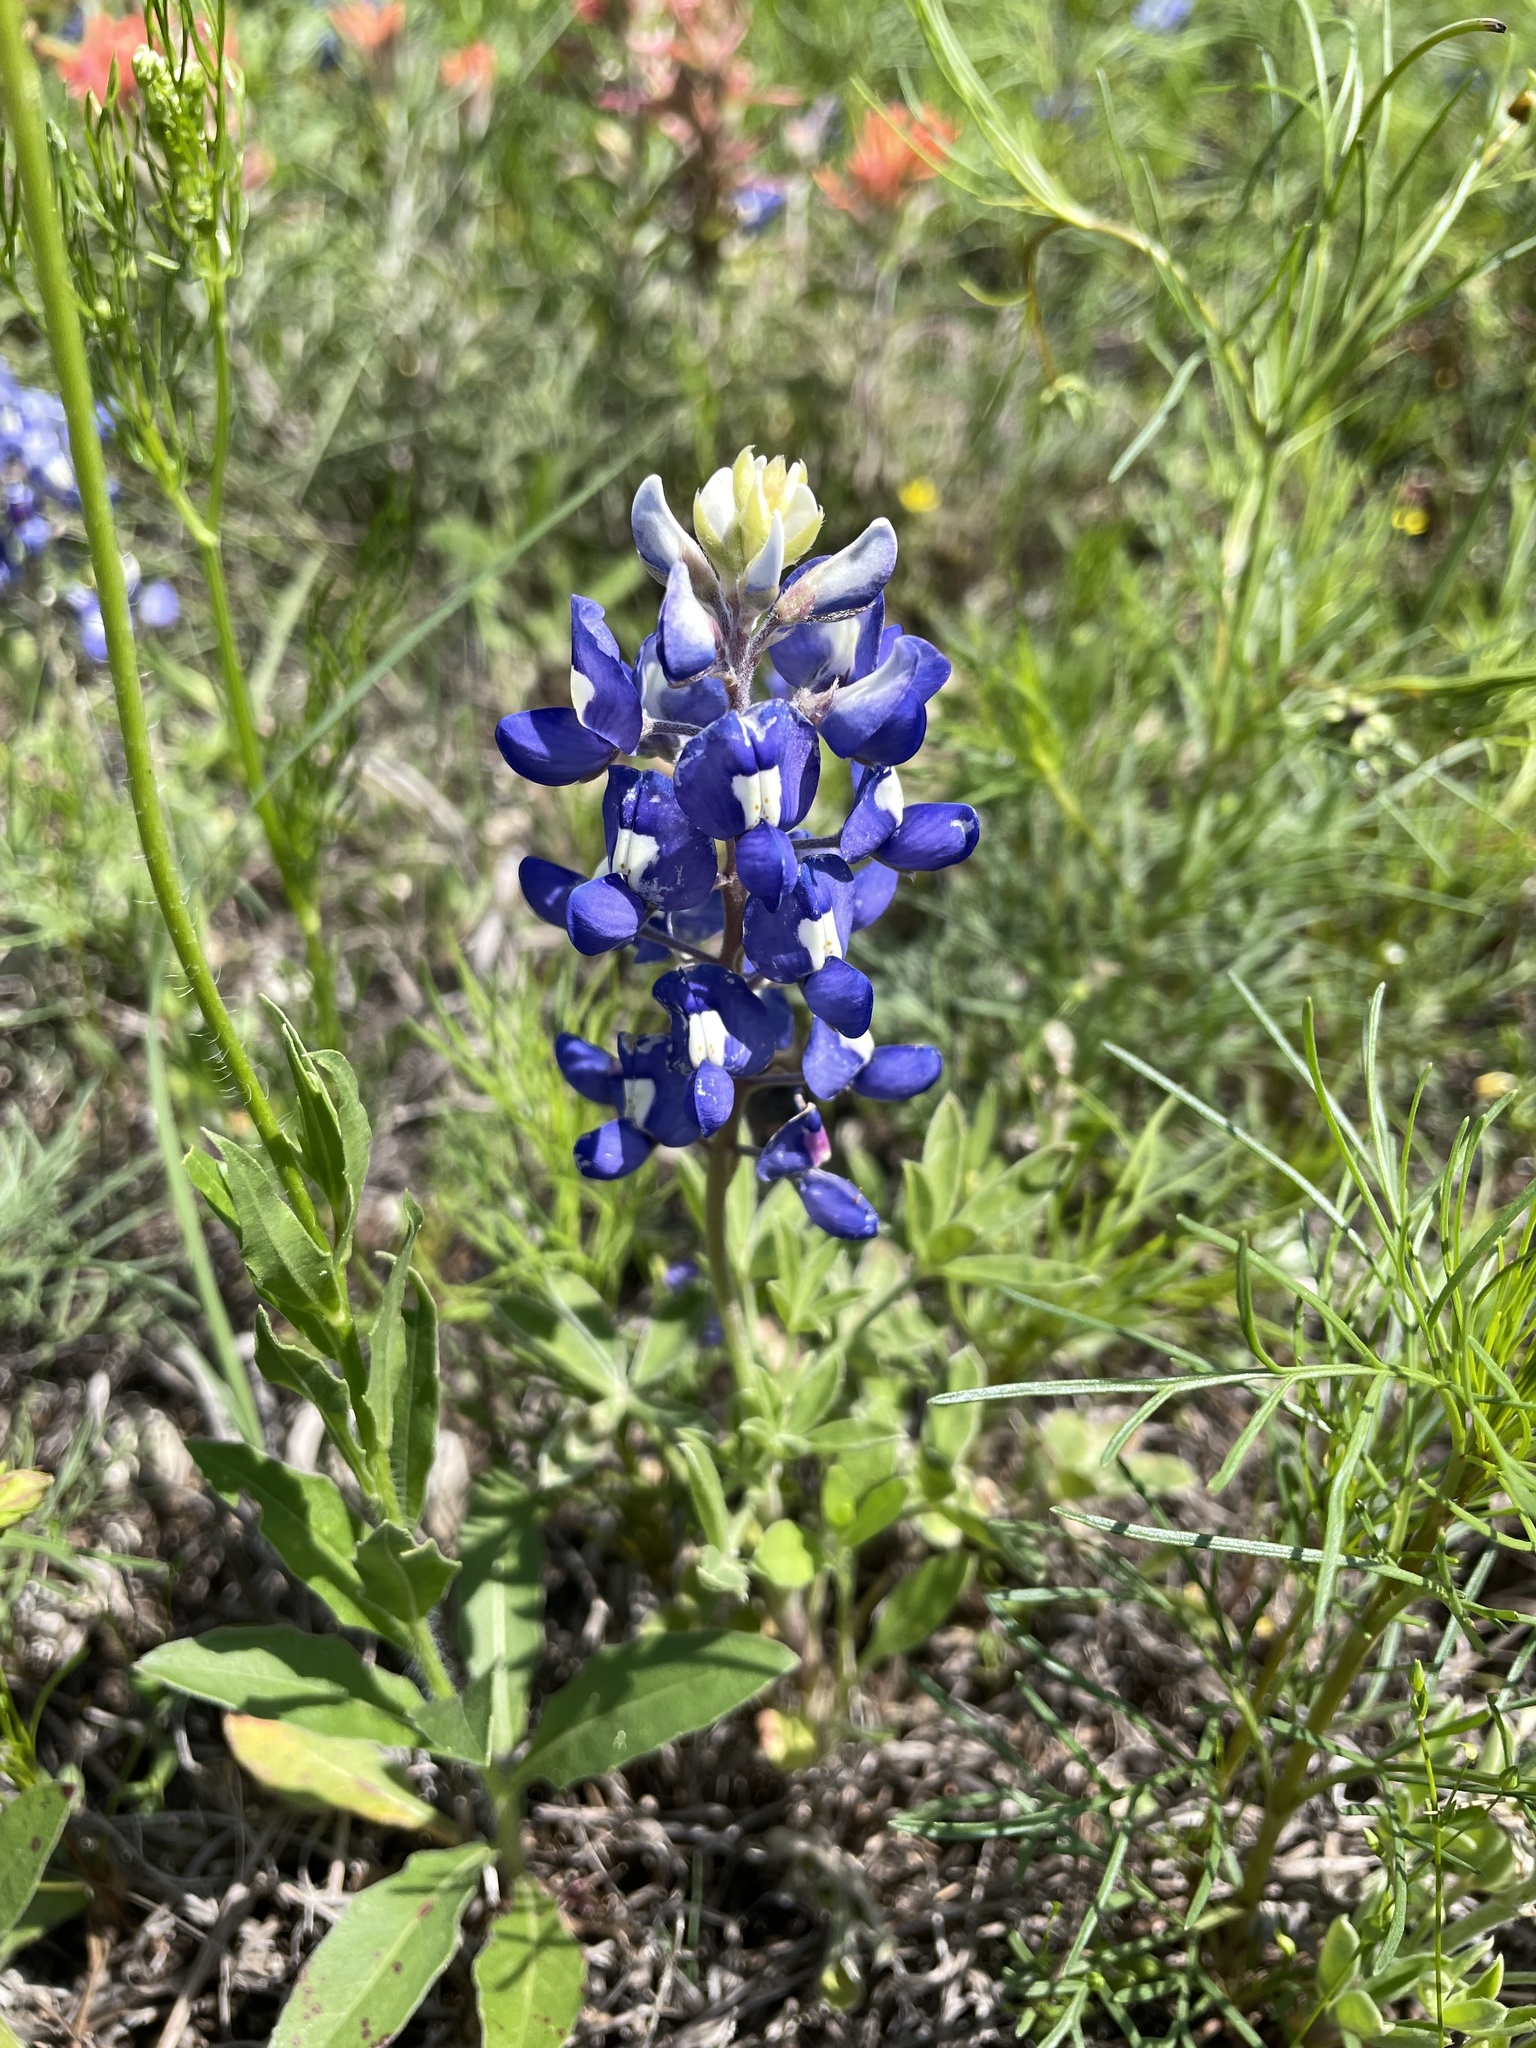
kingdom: Plantae
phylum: Tracheophyta
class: Magnoliopsida
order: Fabales
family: Fabaceae
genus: Lupinus
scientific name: Lupinus texensis
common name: Texas bluebonnet
